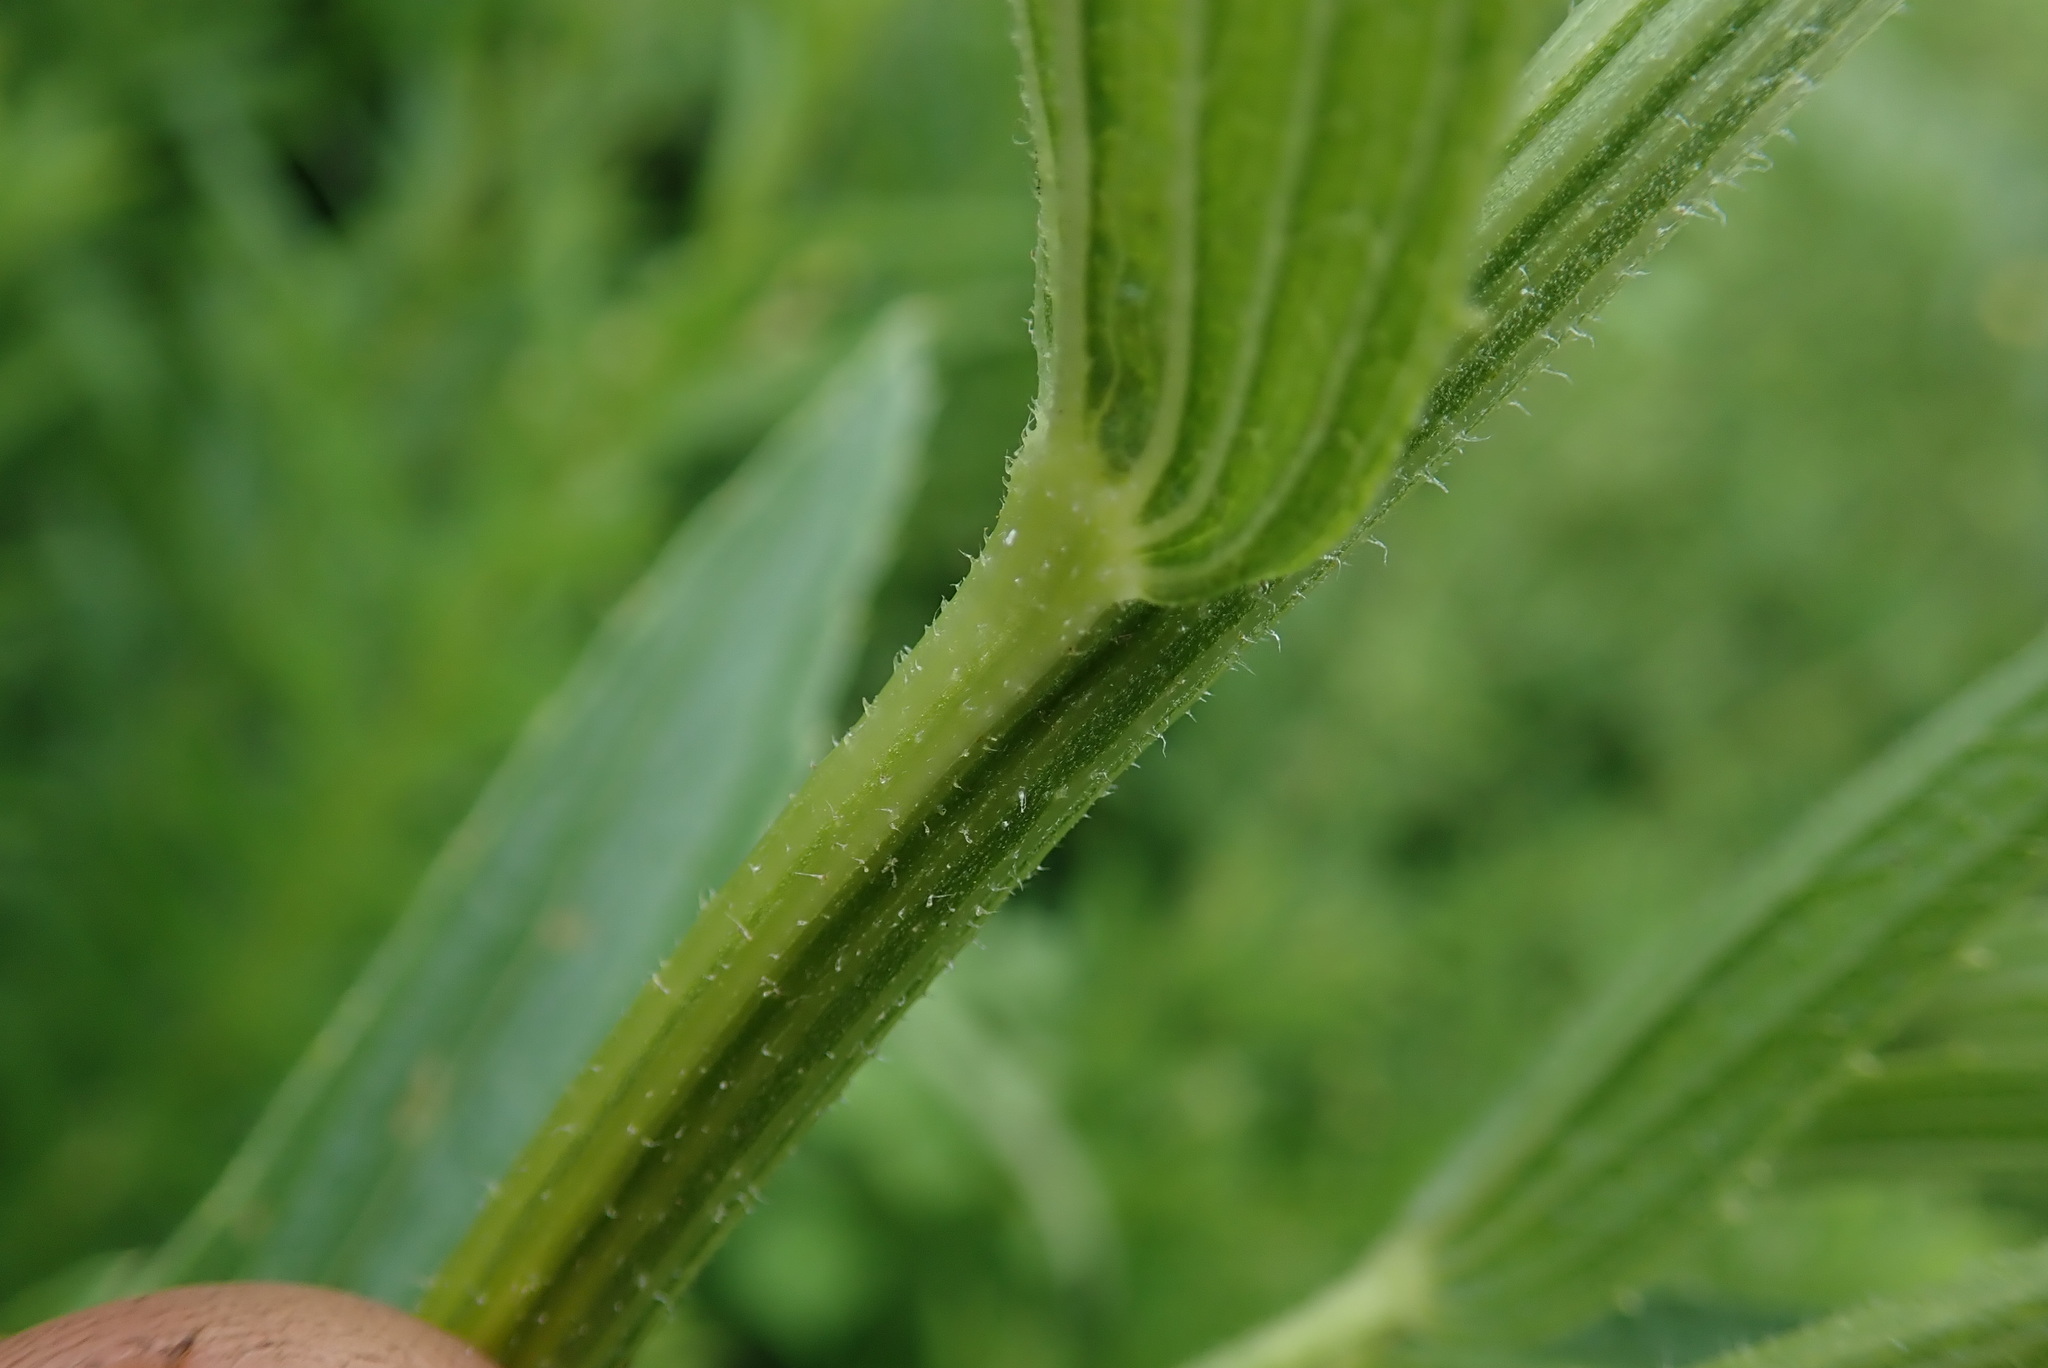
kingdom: Plantae
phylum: Tracheophyta
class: Magnoliopsida
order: Asterales
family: Asteraceae
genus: Afroaster
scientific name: Afroaster comptonii
